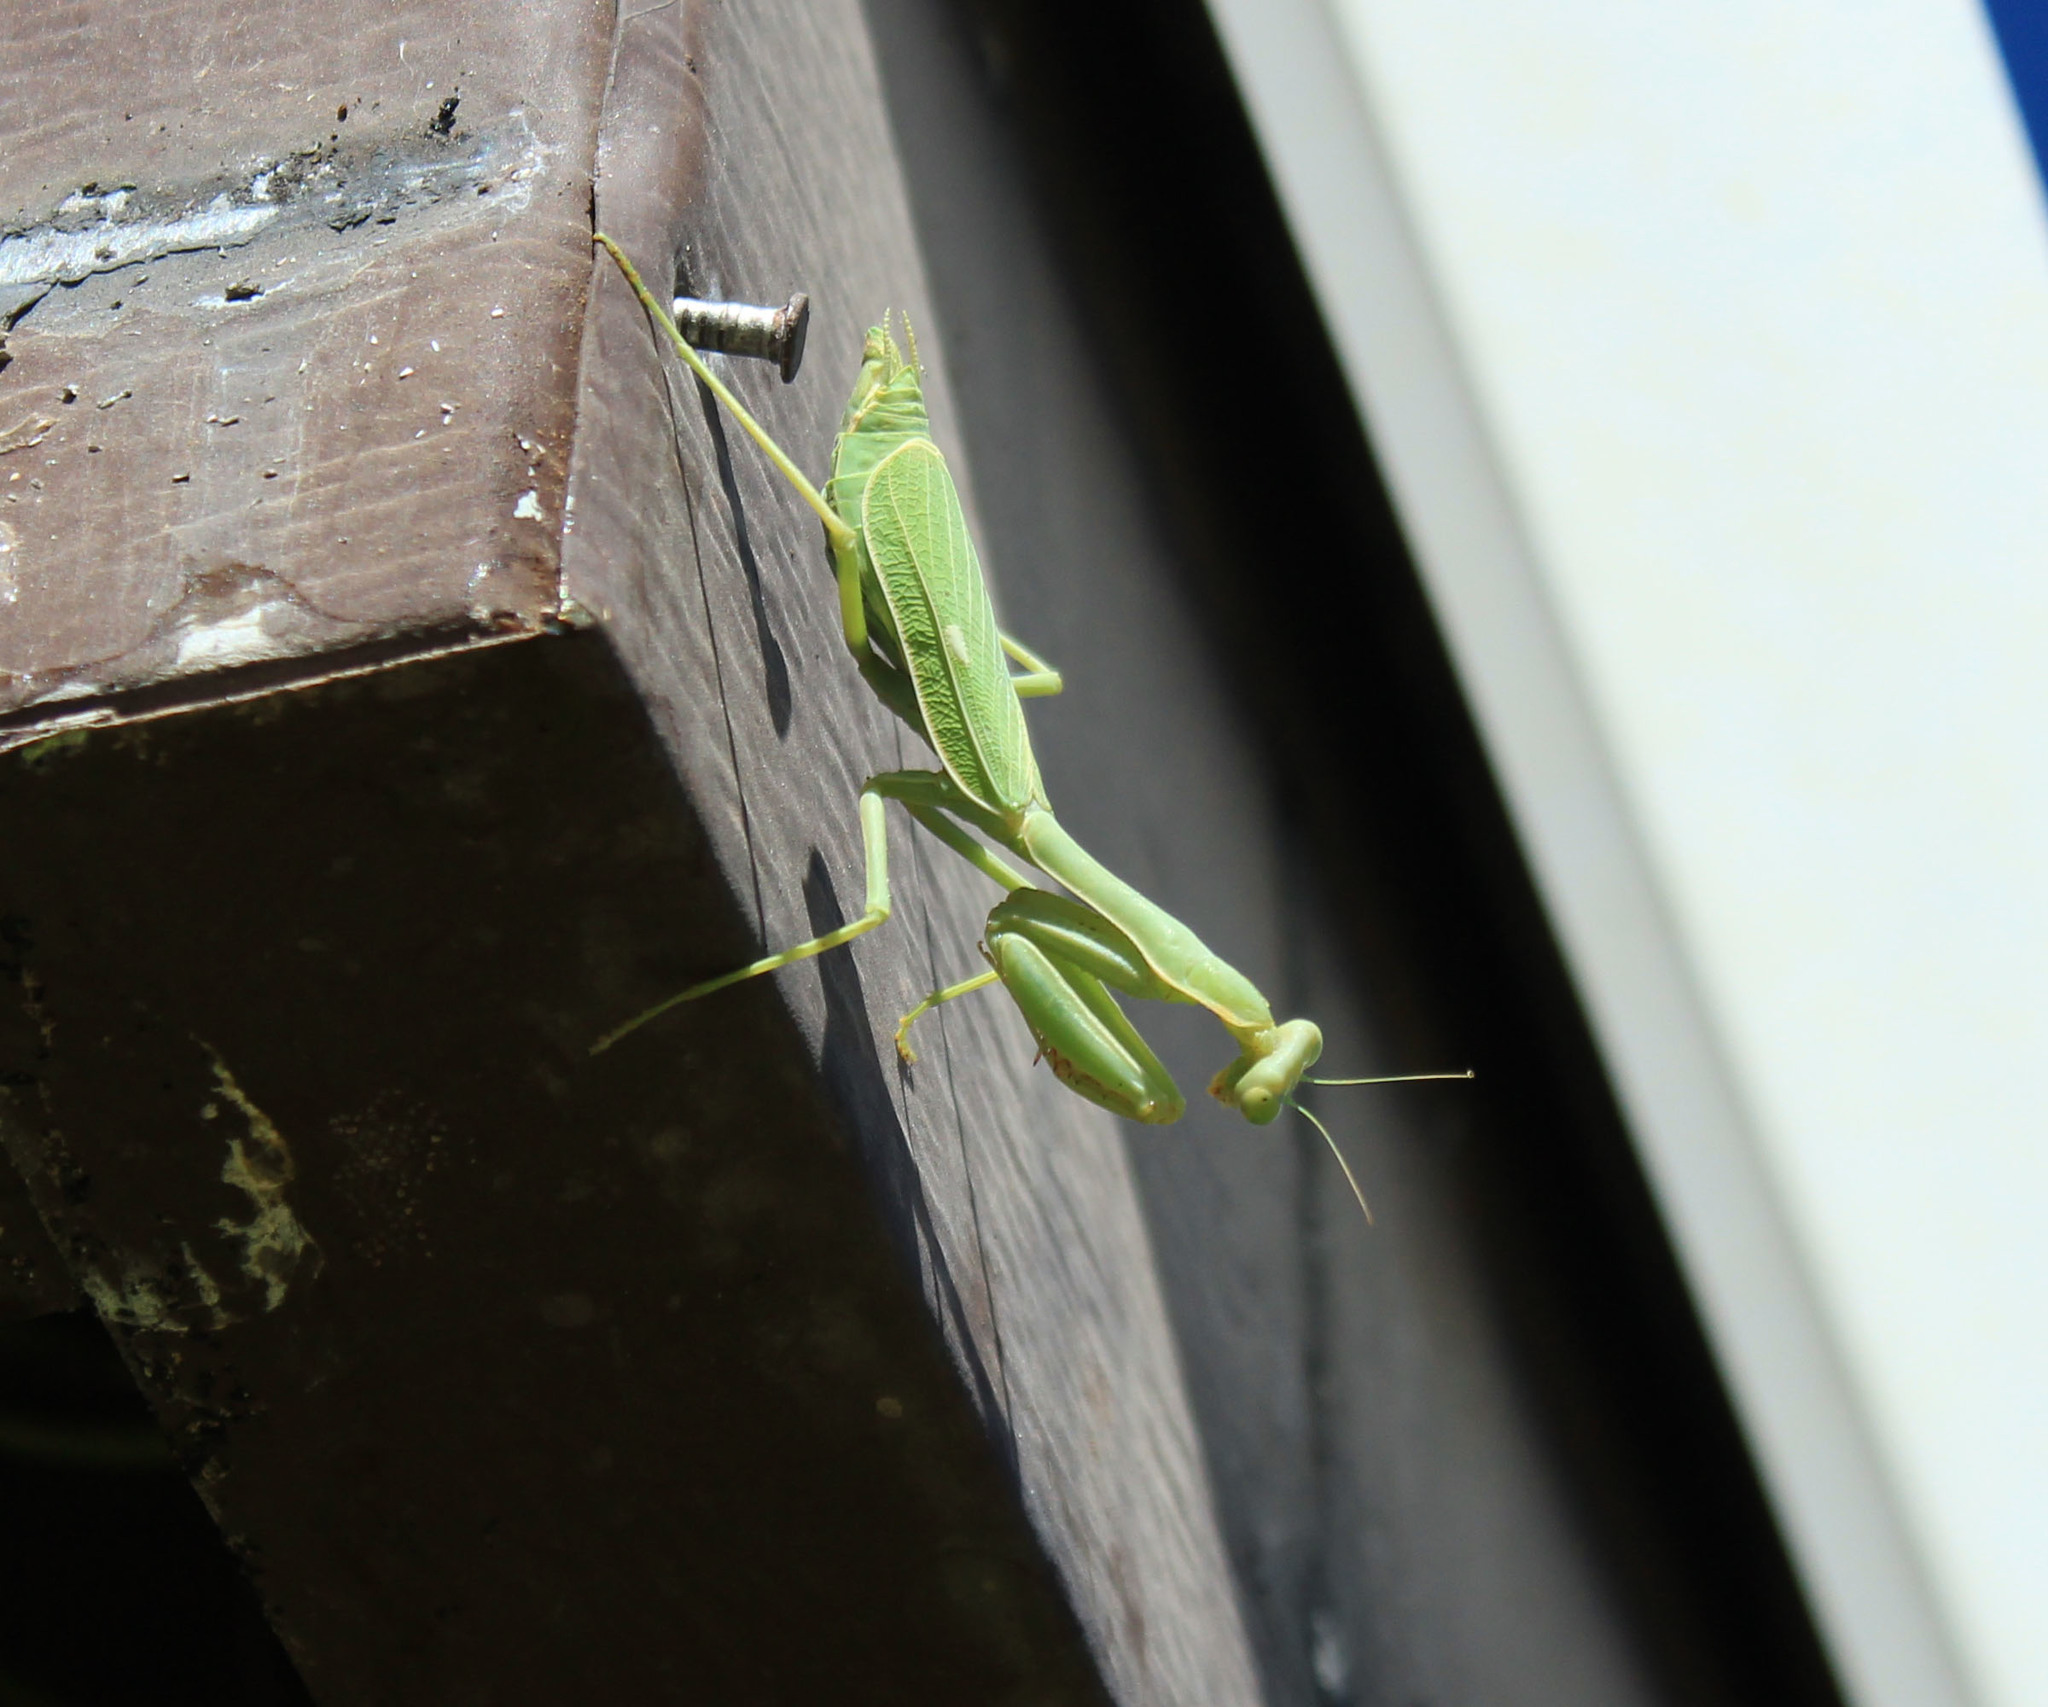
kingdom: Animalia
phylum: Arthropoda
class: Insecta
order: Mantodea
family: Mantidae
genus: Stagmomantis
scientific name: Stagmomantis limbata
